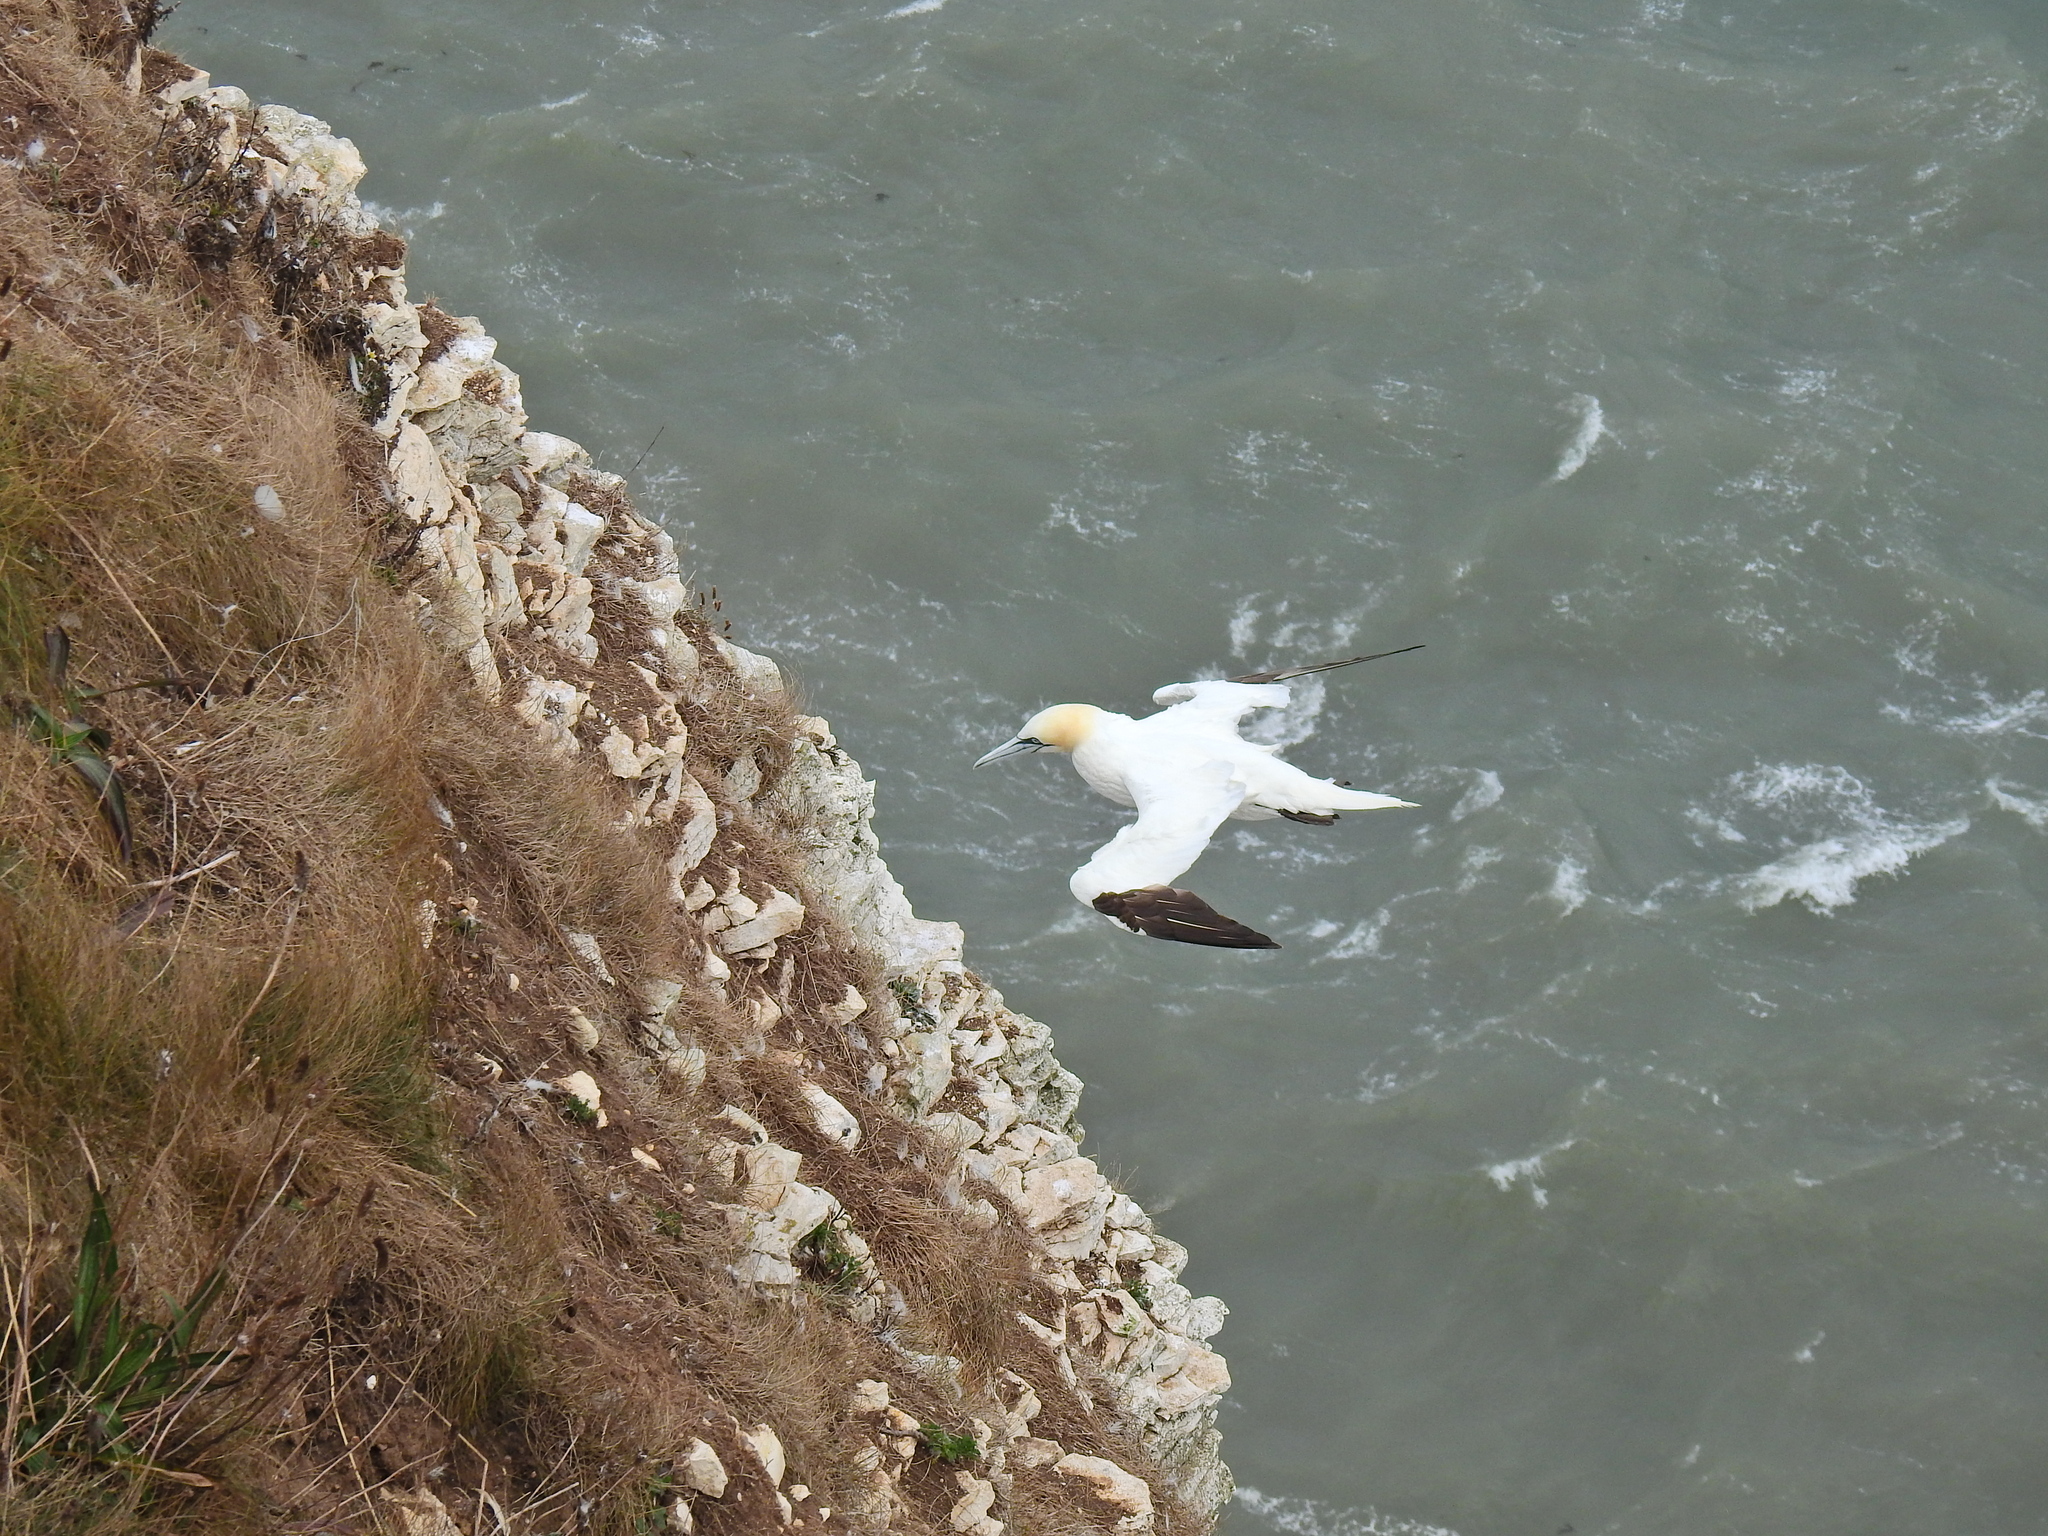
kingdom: Animalia
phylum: Chordata
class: Aves
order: Suliformes
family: Sulidae
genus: Morus
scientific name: Morus bassanus
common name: Northern gannet
